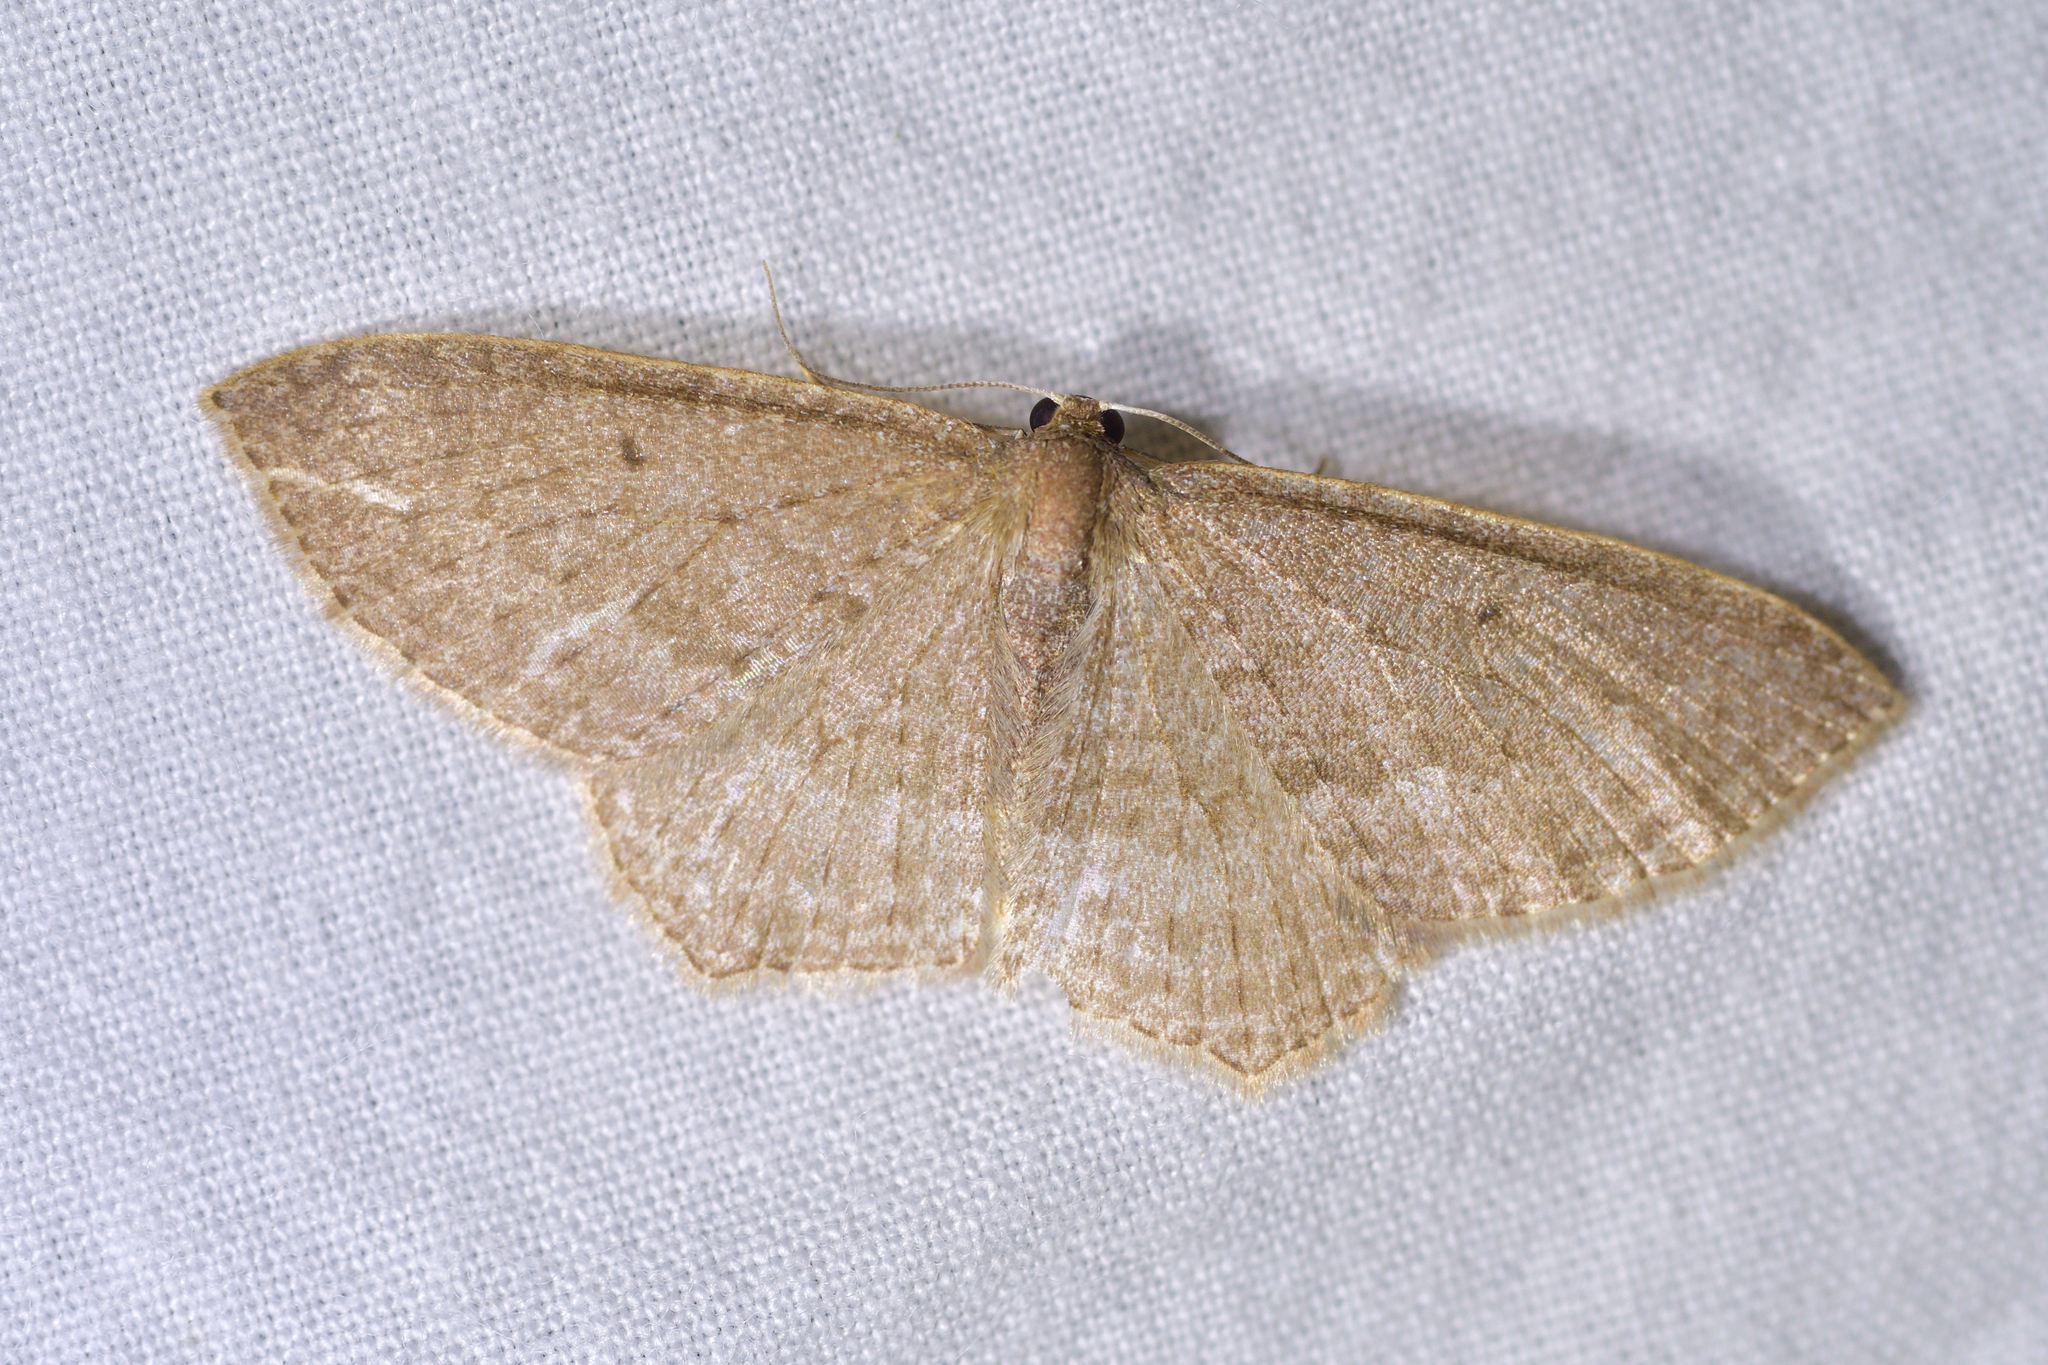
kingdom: Animalia
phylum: Arthropoda
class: Insecta
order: Lepidoptera
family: Geometridae
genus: Poecilasthena
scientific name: Poecilasthena subpurpureata
